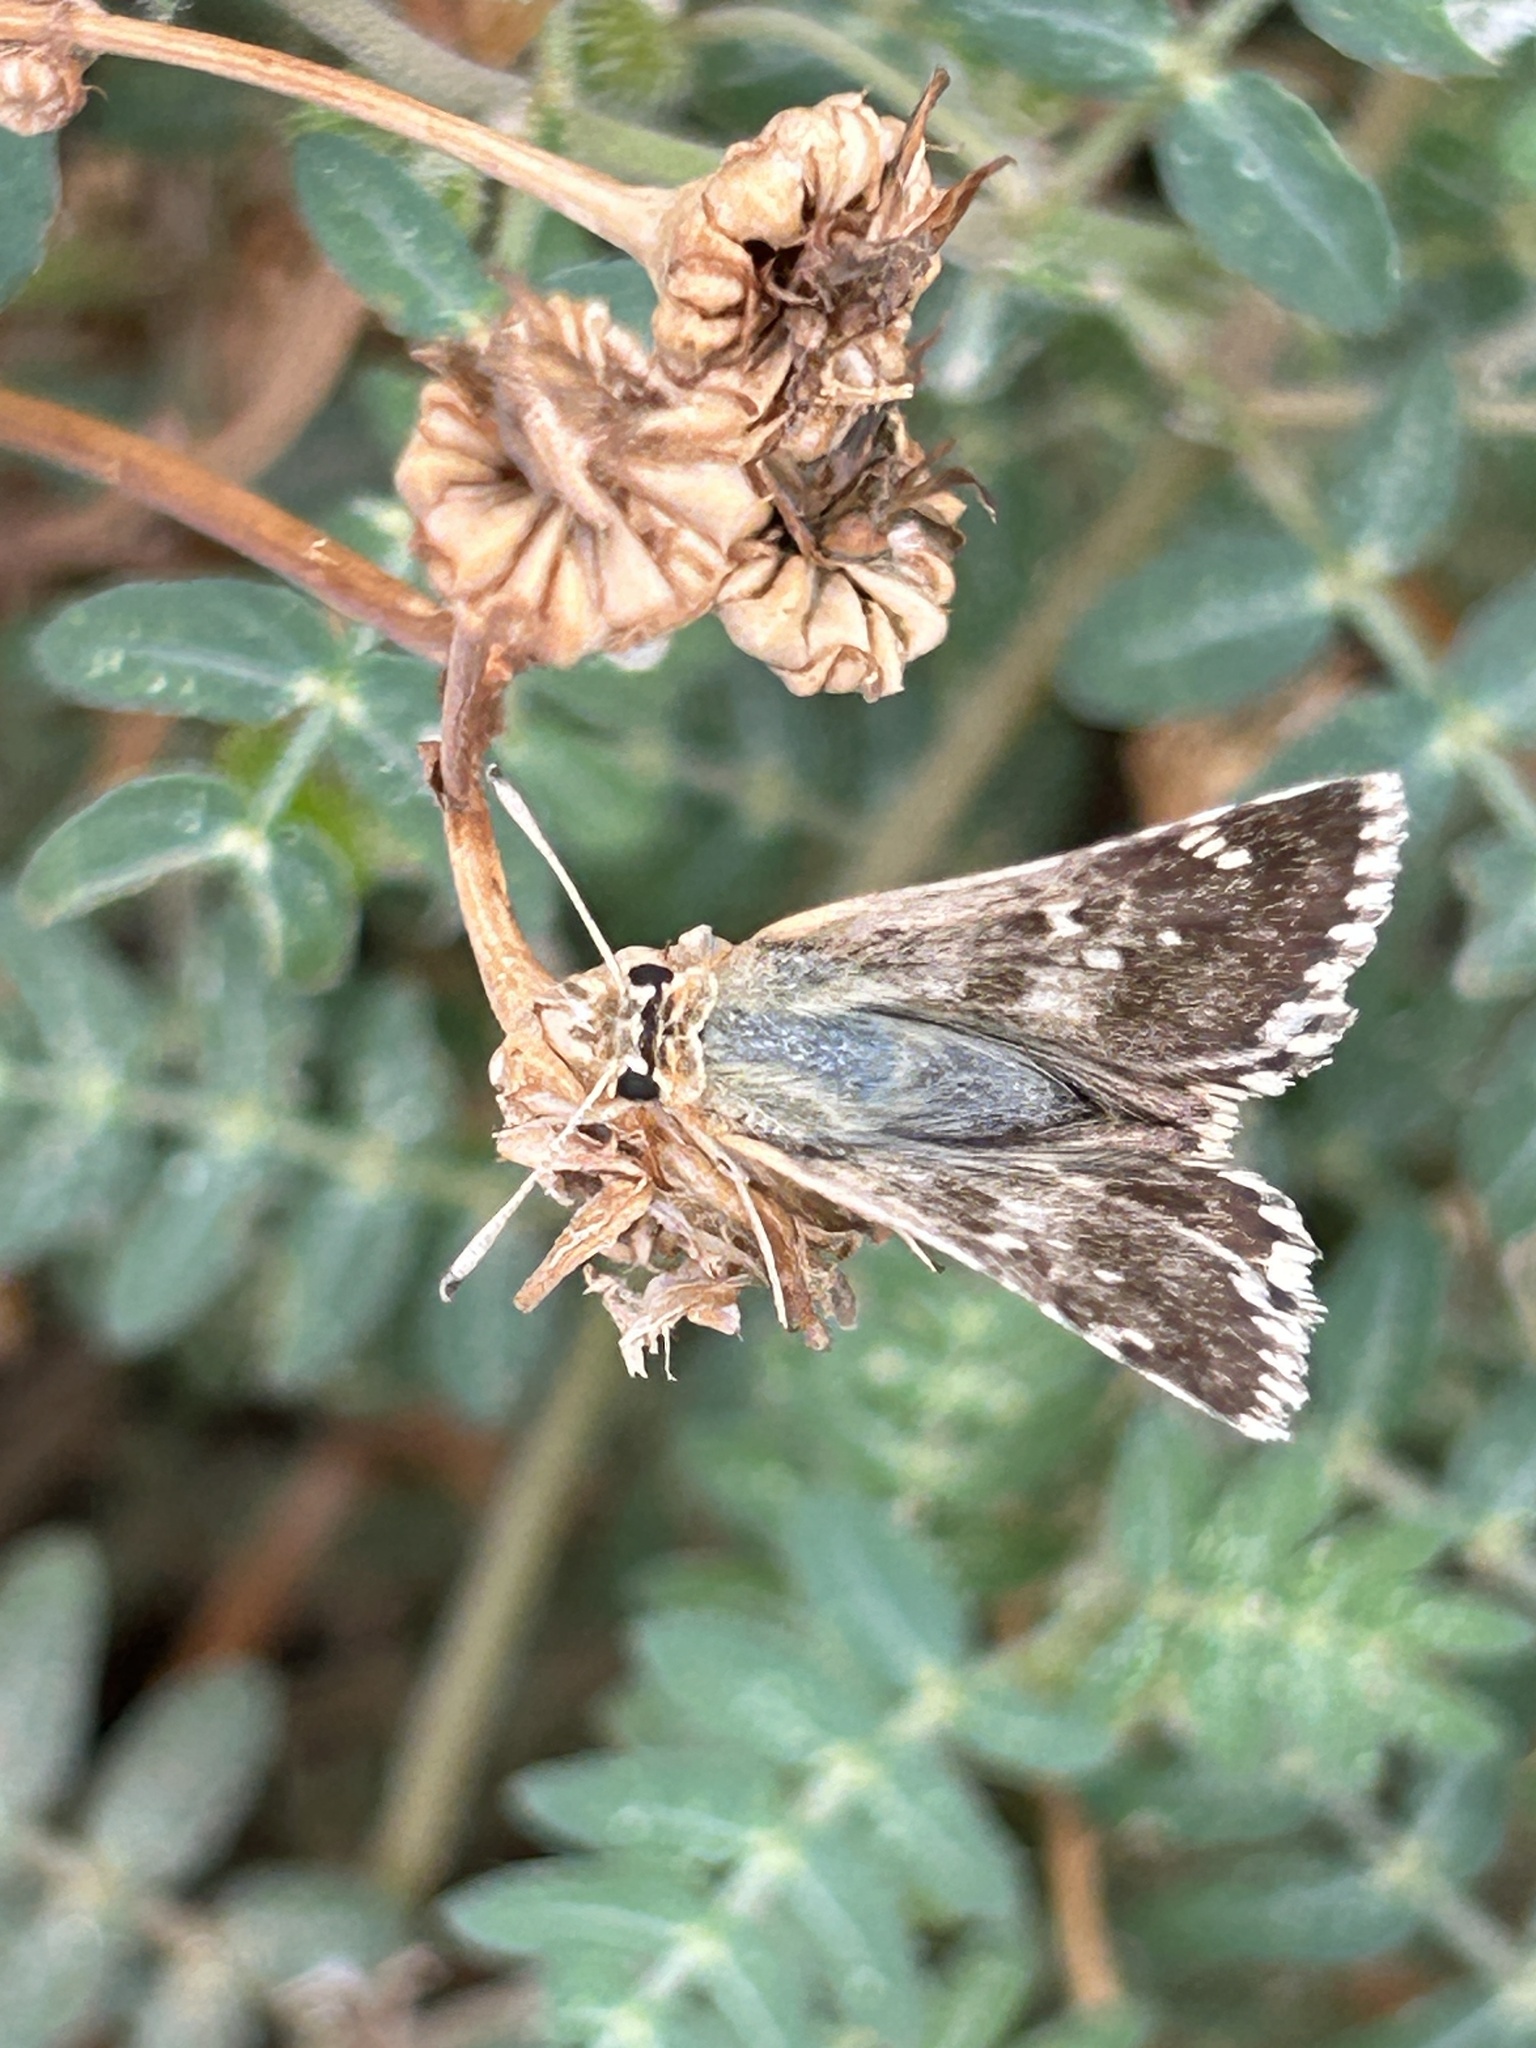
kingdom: Animalia
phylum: Arthropoda
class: Insecta
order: Lepidoptera
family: Hesperiidae
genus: Syrichtus
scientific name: Syrichtus proto
